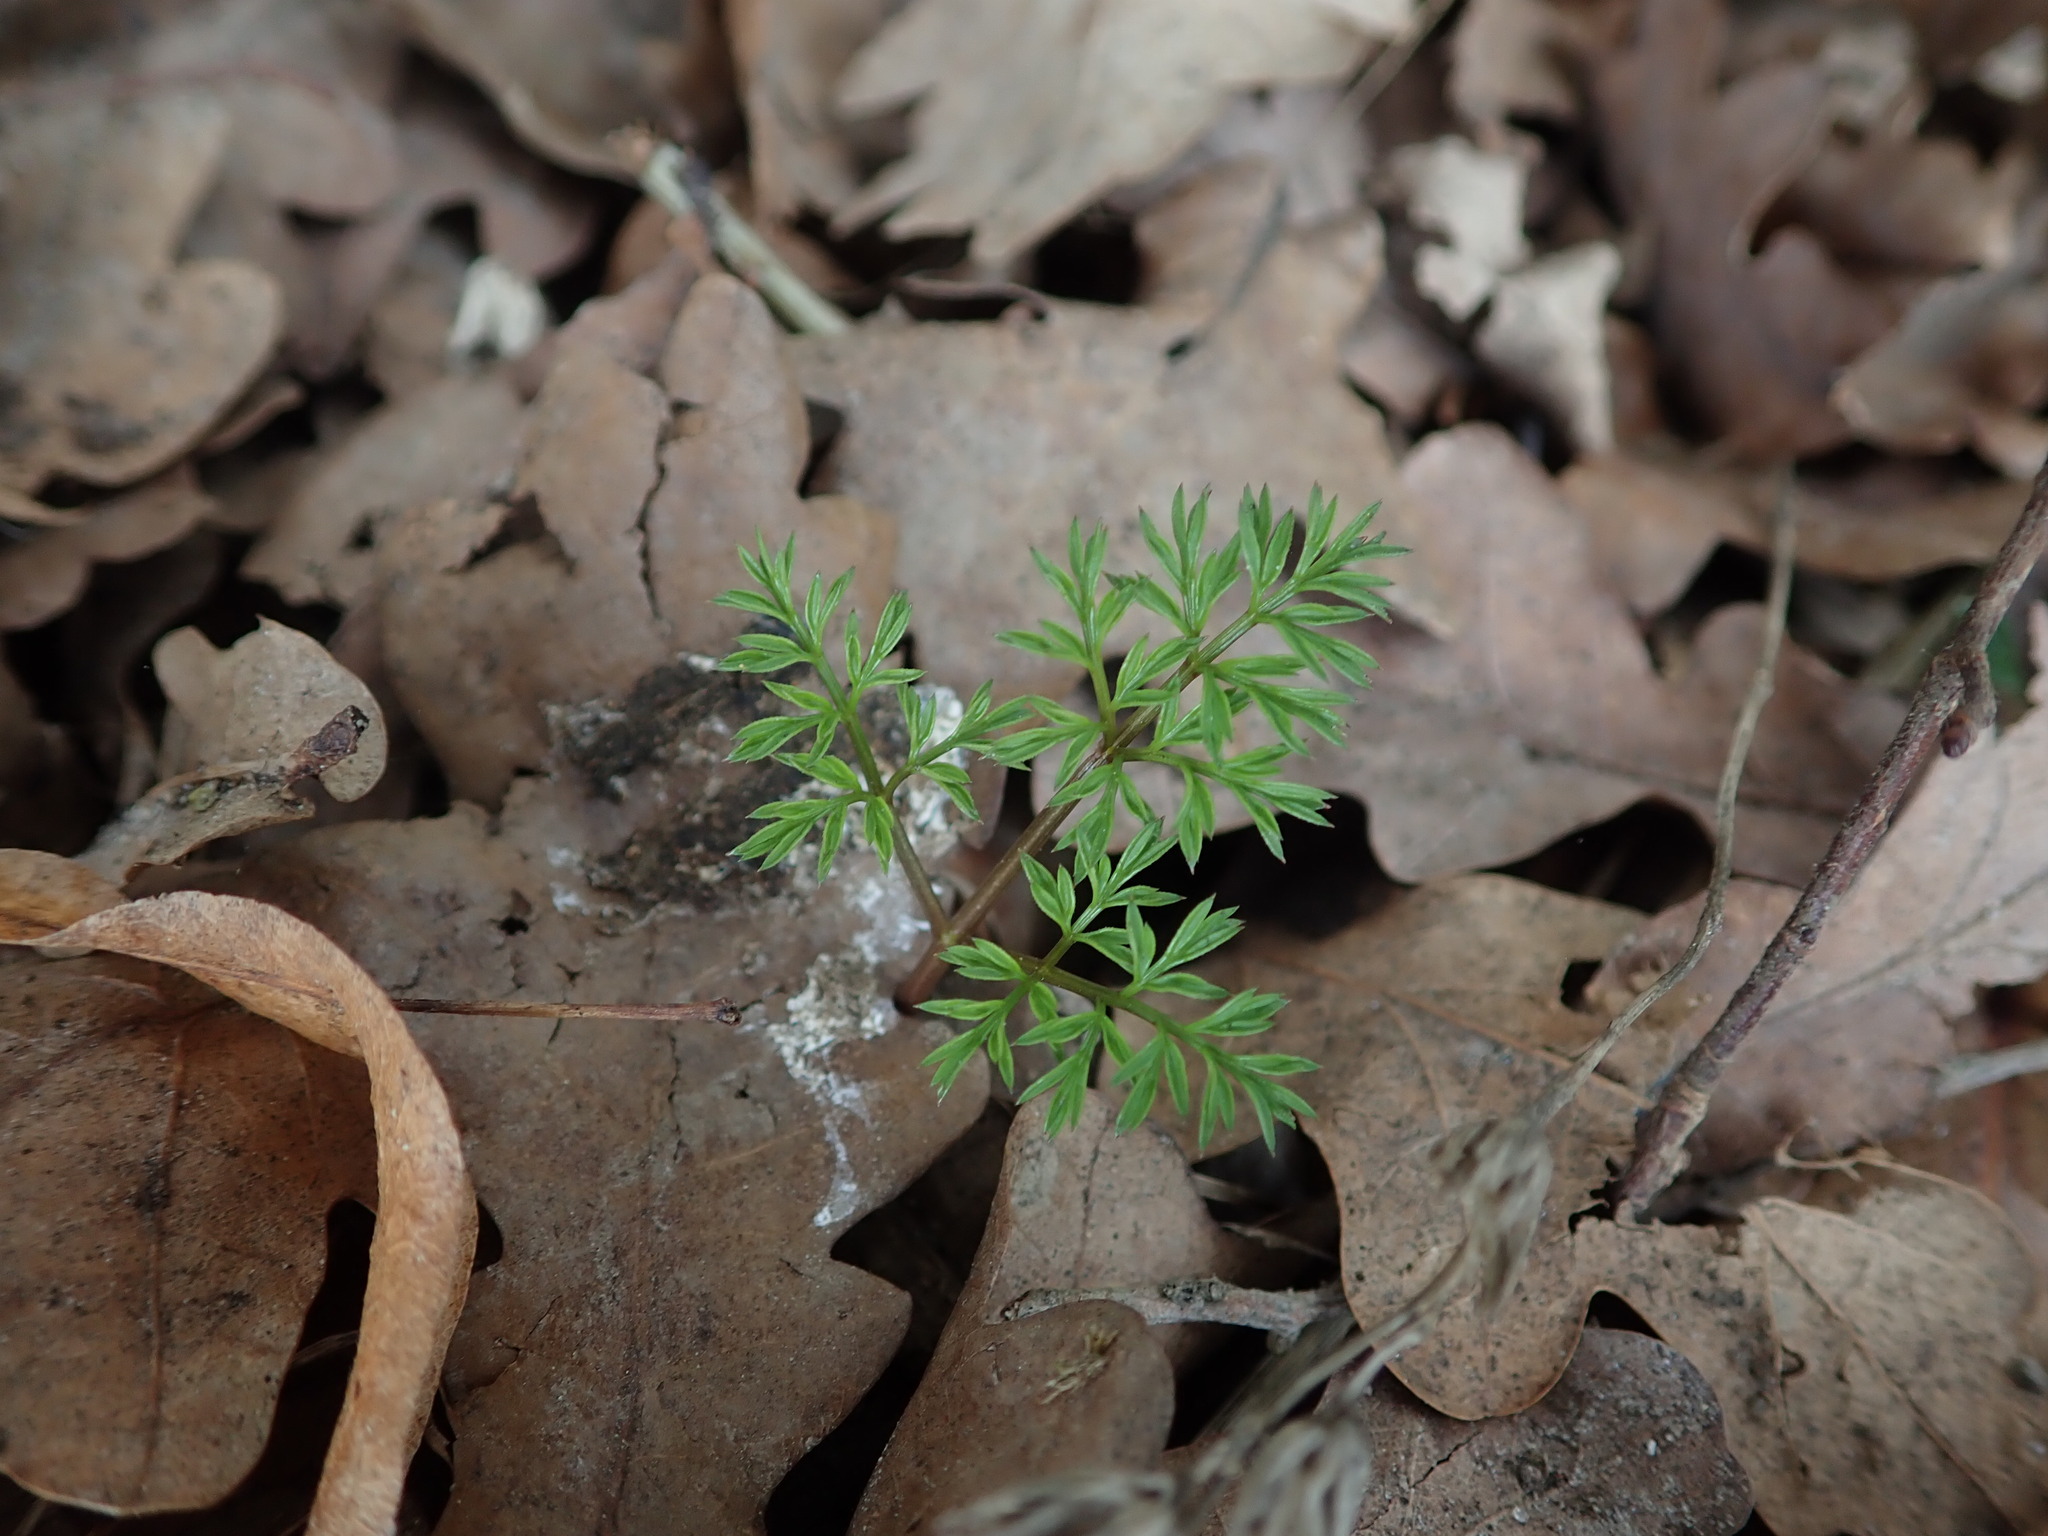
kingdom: Plantae
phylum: Tracheophyta
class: Magnoliopsida
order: Apiales
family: Apiaceae
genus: Conopodium
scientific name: Conopodium majus
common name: Pignut
